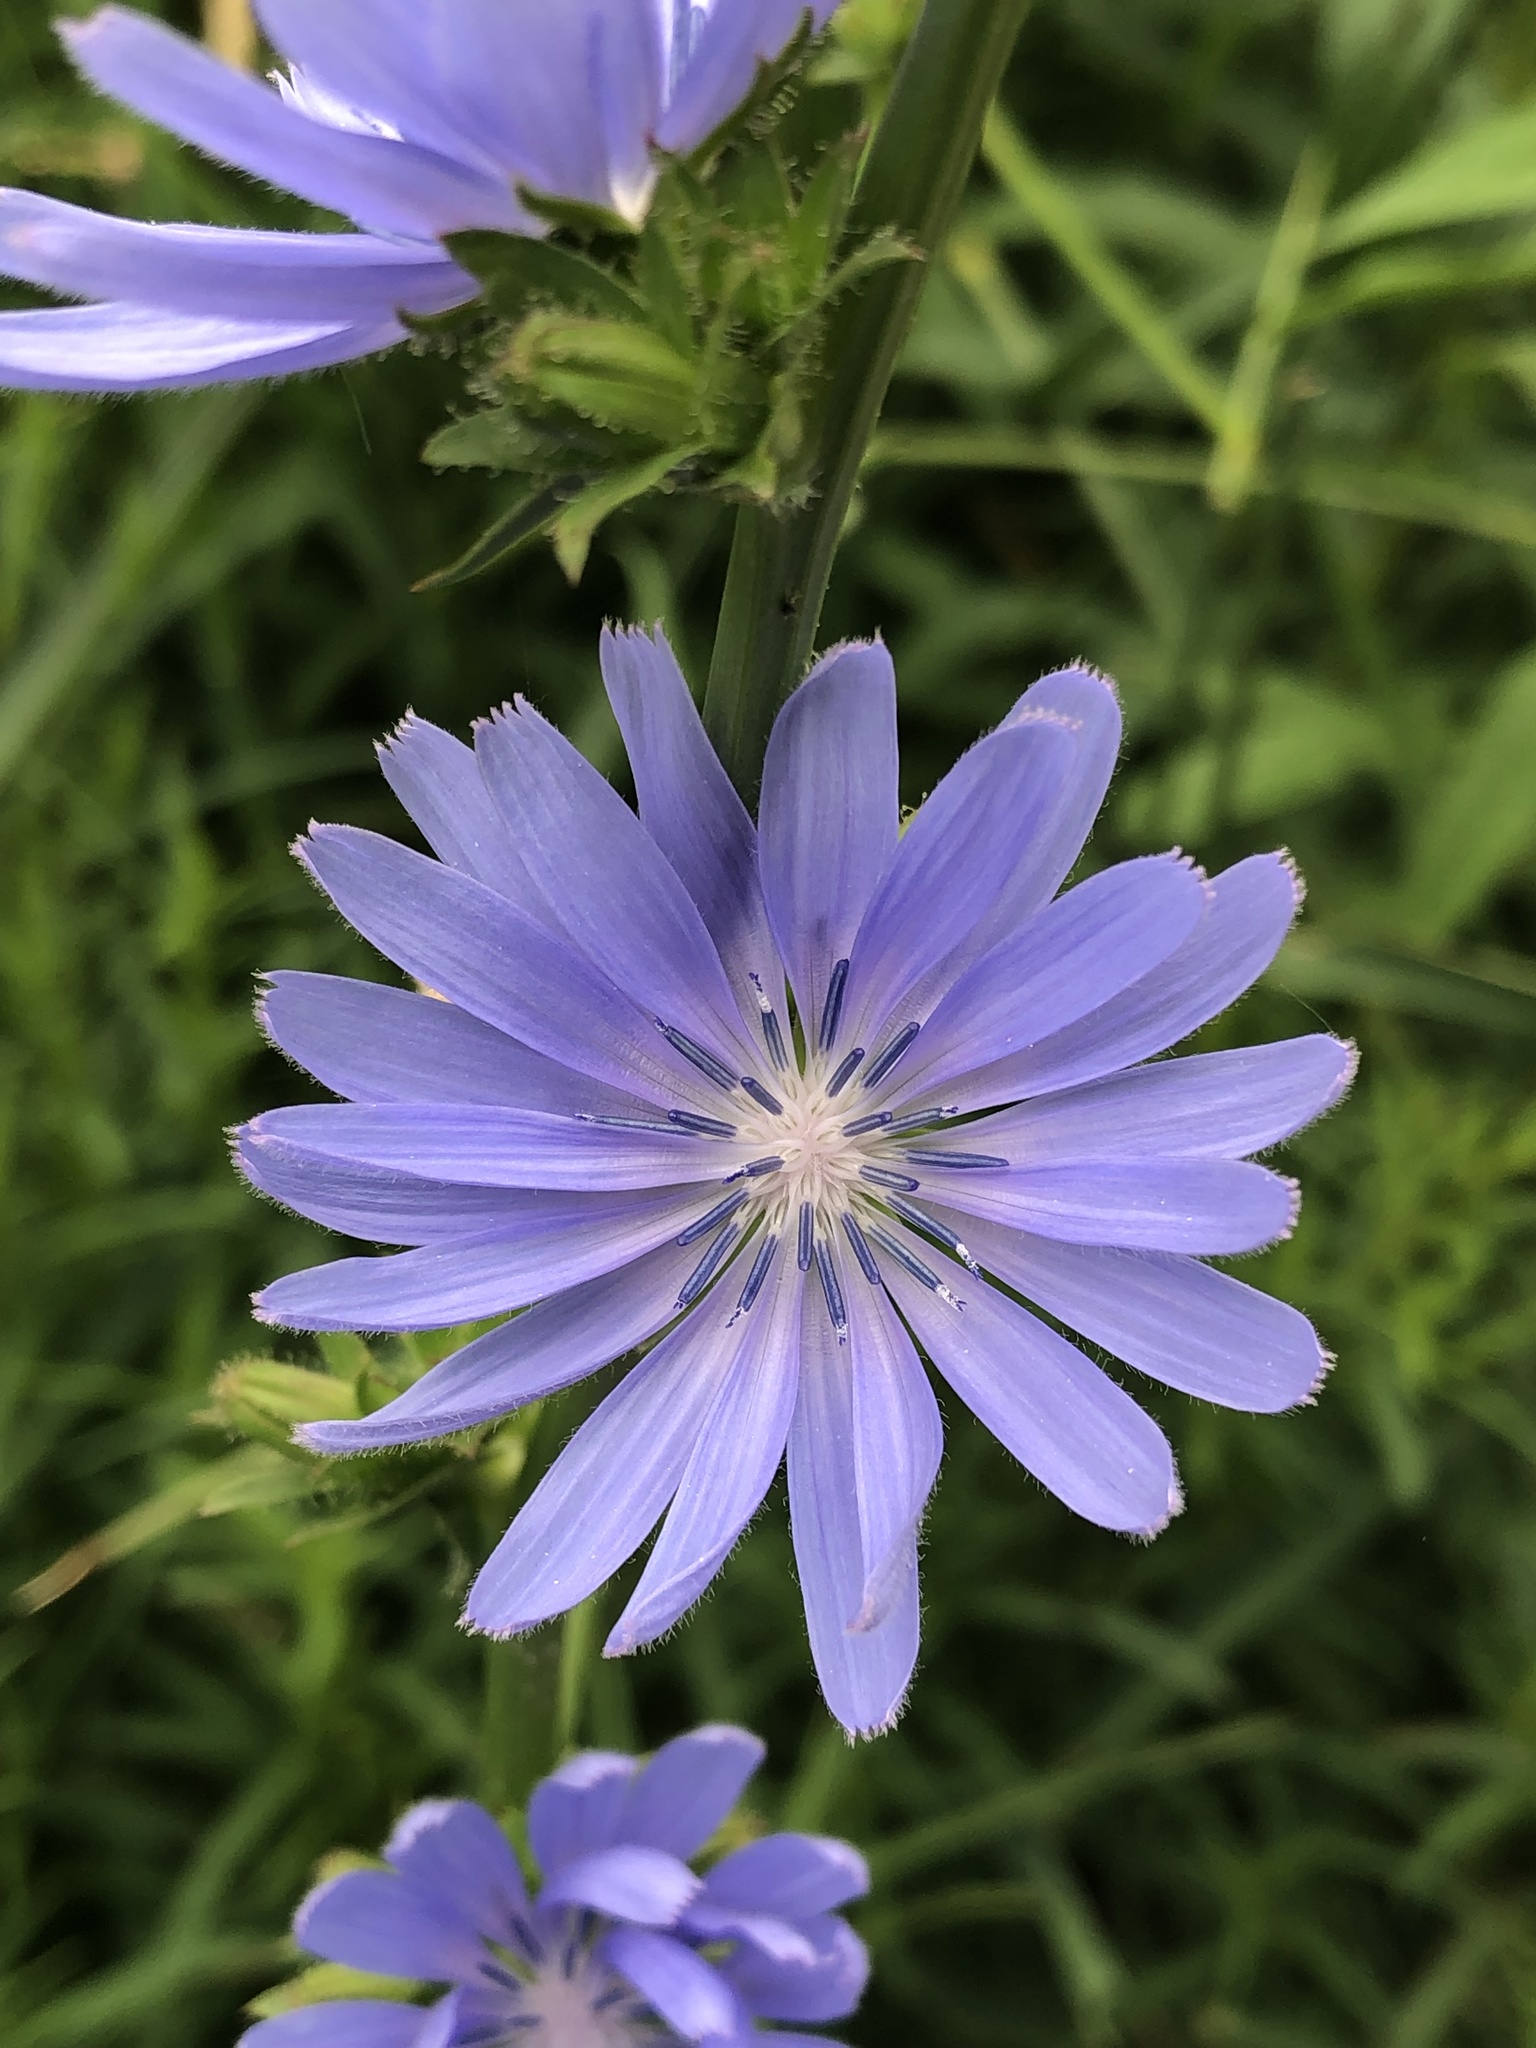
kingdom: Plantae
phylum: Tracheophyta
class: Magnoliopsida
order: Asterales
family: Asteraceae
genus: Cichorium
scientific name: Cichorium intybus
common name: Chicory
